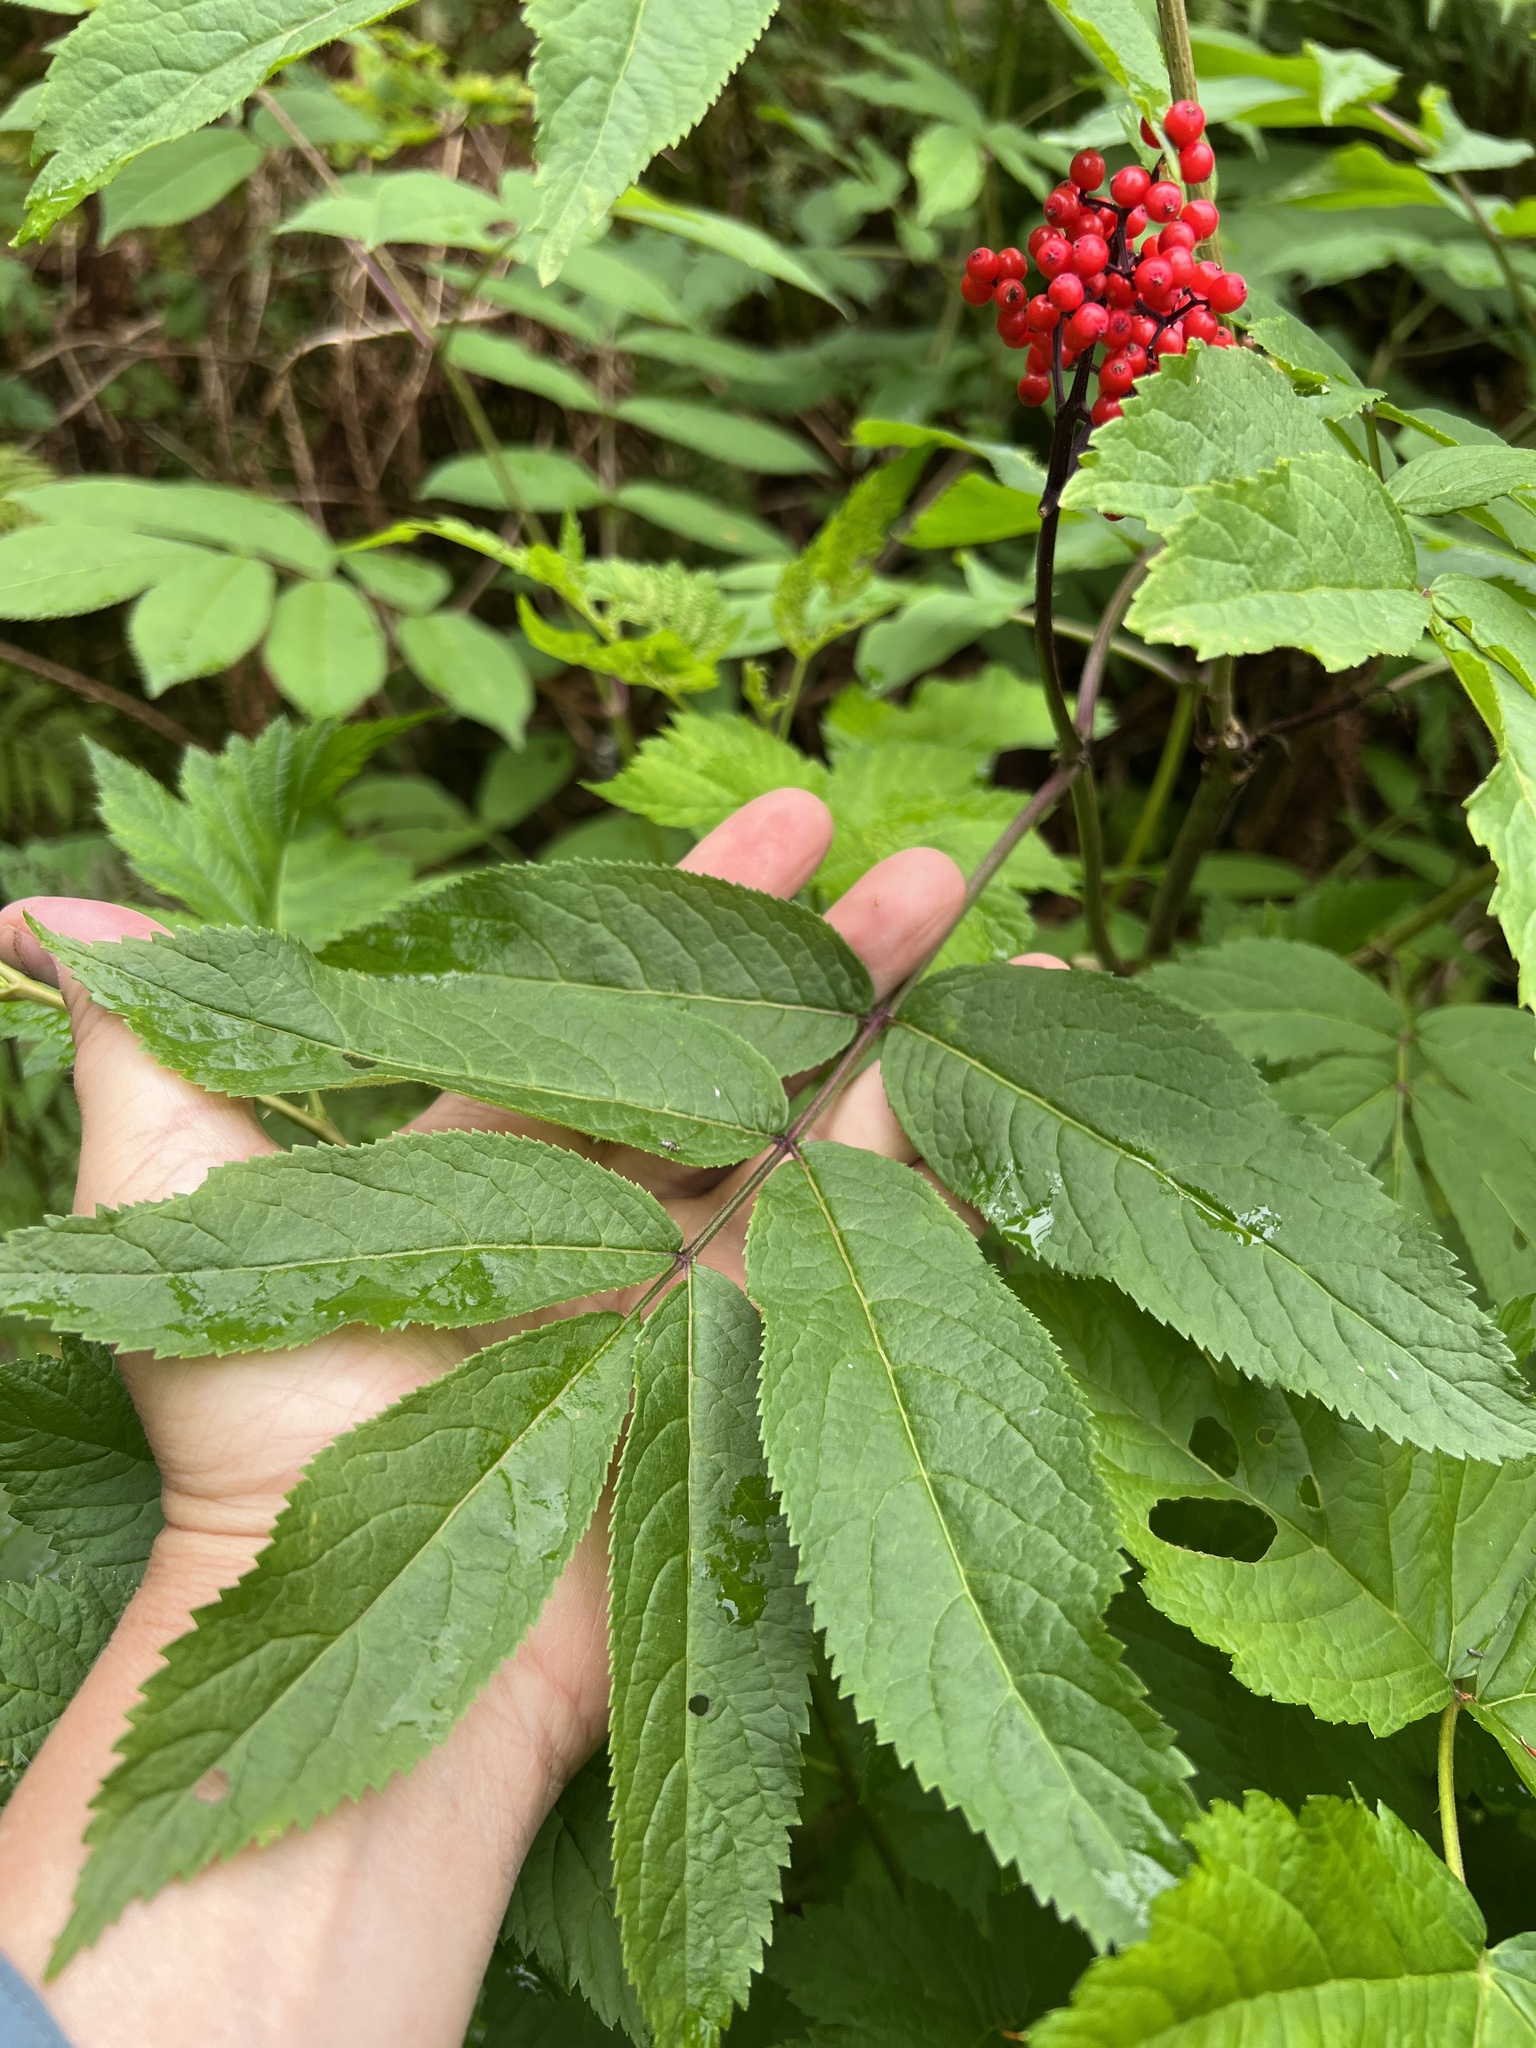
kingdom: Plantae
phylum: Tracheophyta
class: Magnoliopsida
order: Dipsacales
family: Viburnaceae
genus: Sambucus
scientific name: Sambucus racemosa
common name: Red-berried elder
